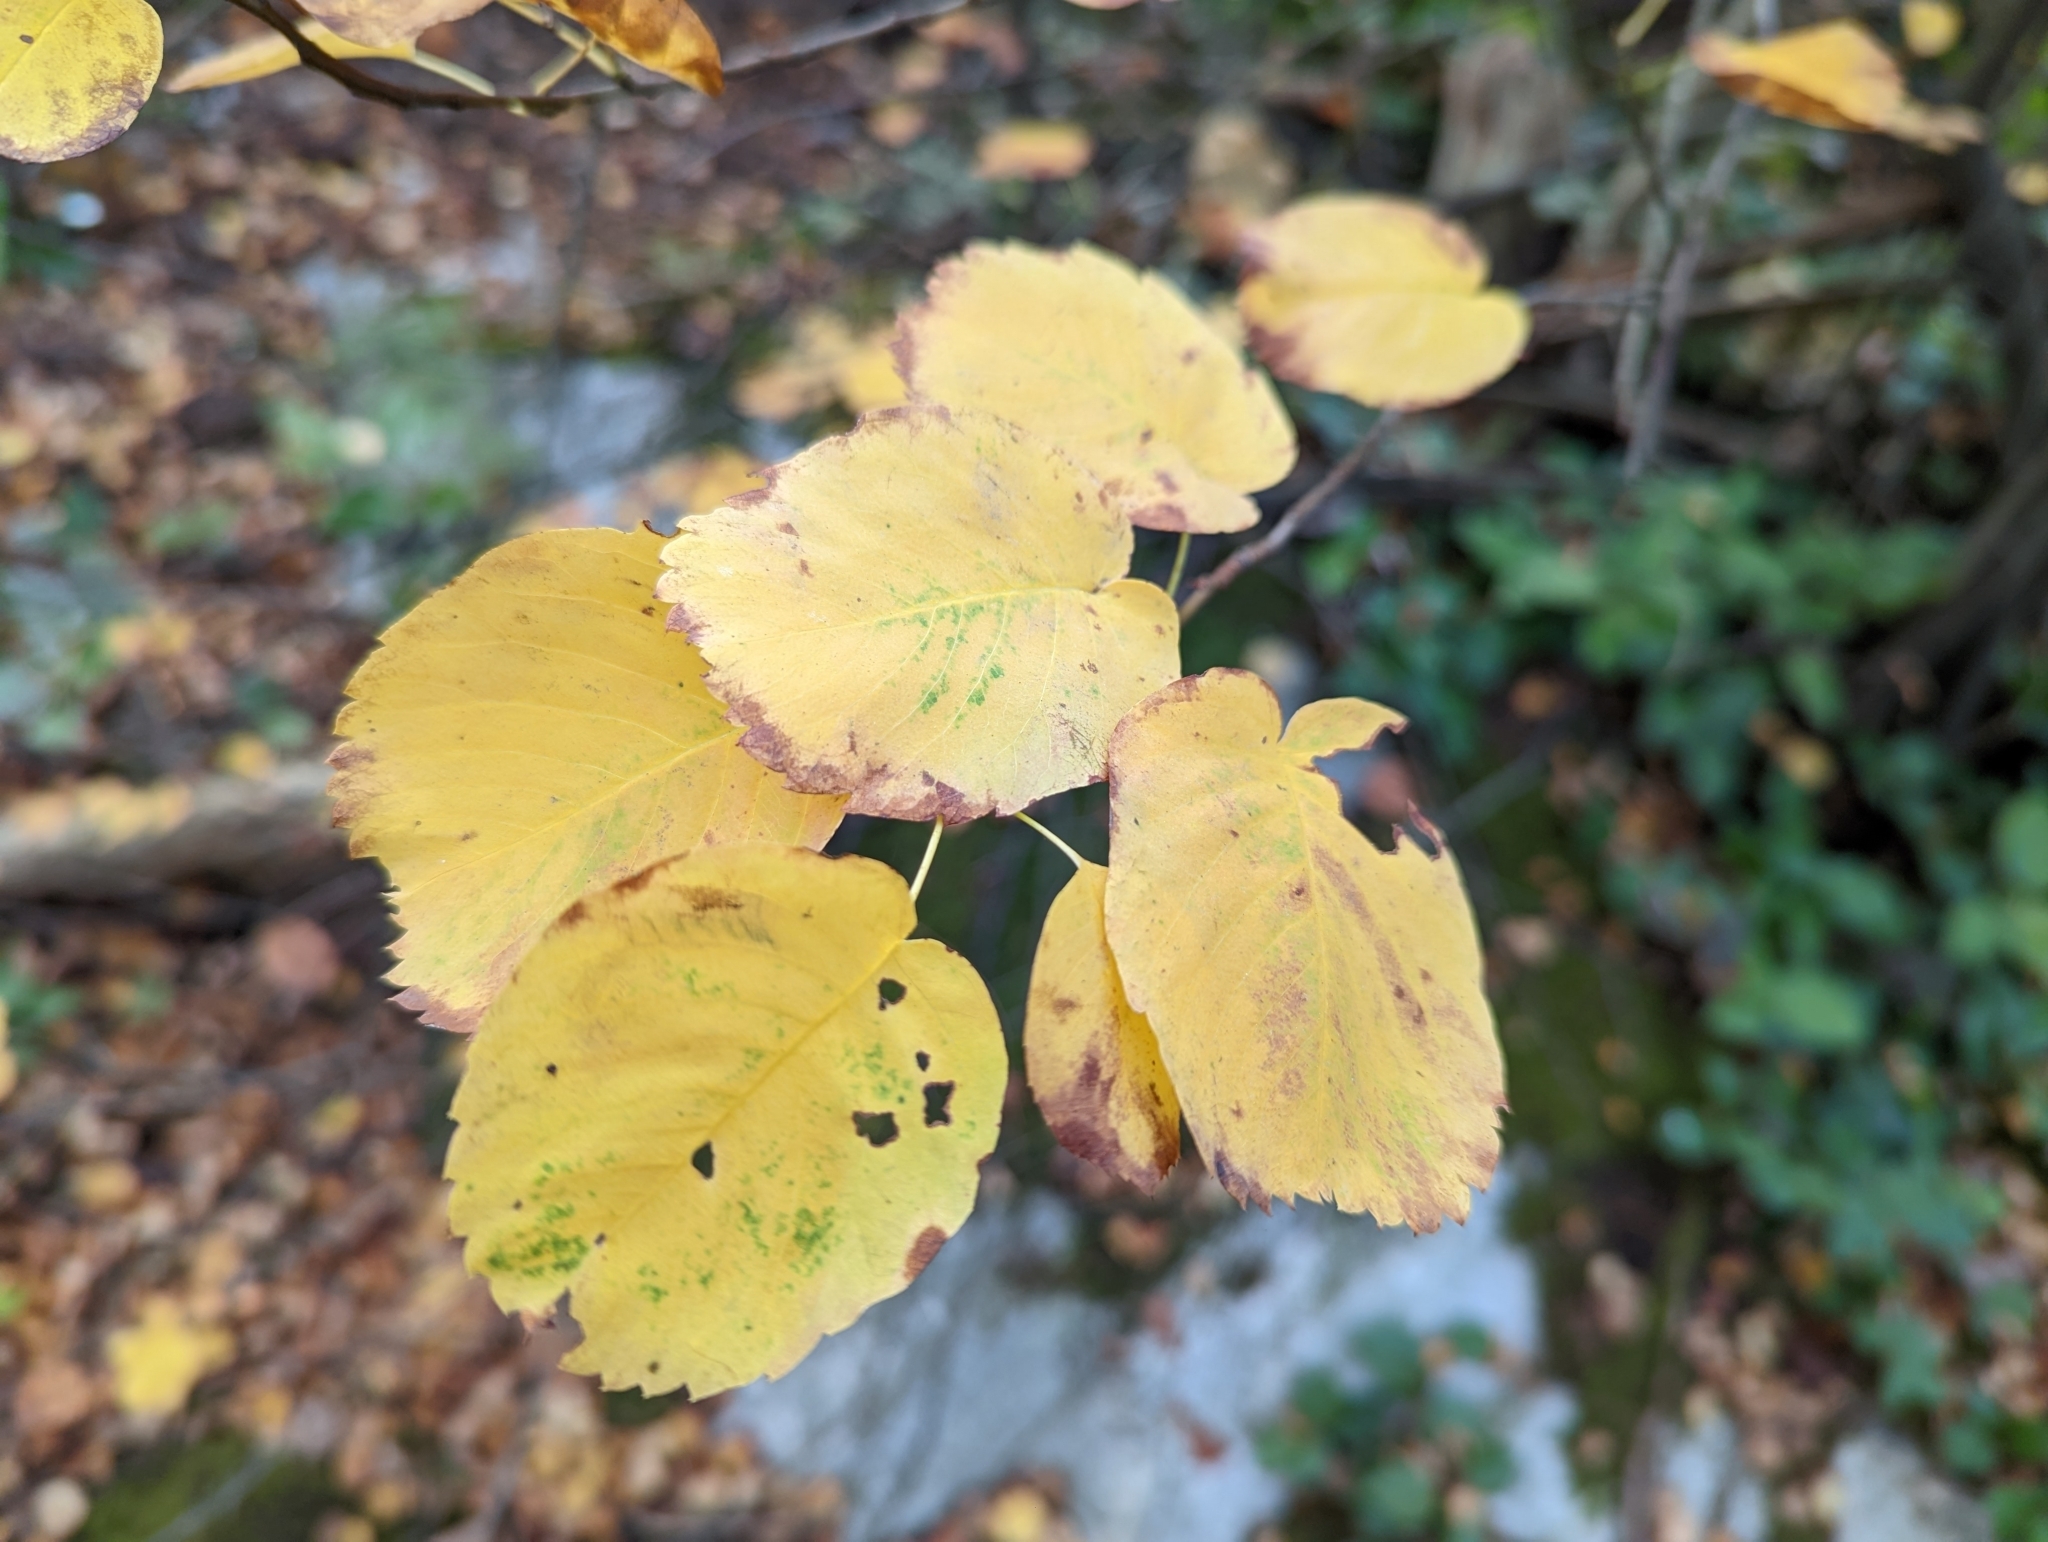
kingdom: Plantae
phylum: Tracheophyta
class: Magnoliopsida
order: Rosales
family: Rosaceae
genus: Amelanchier
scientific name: Amelanchier alnifolia
